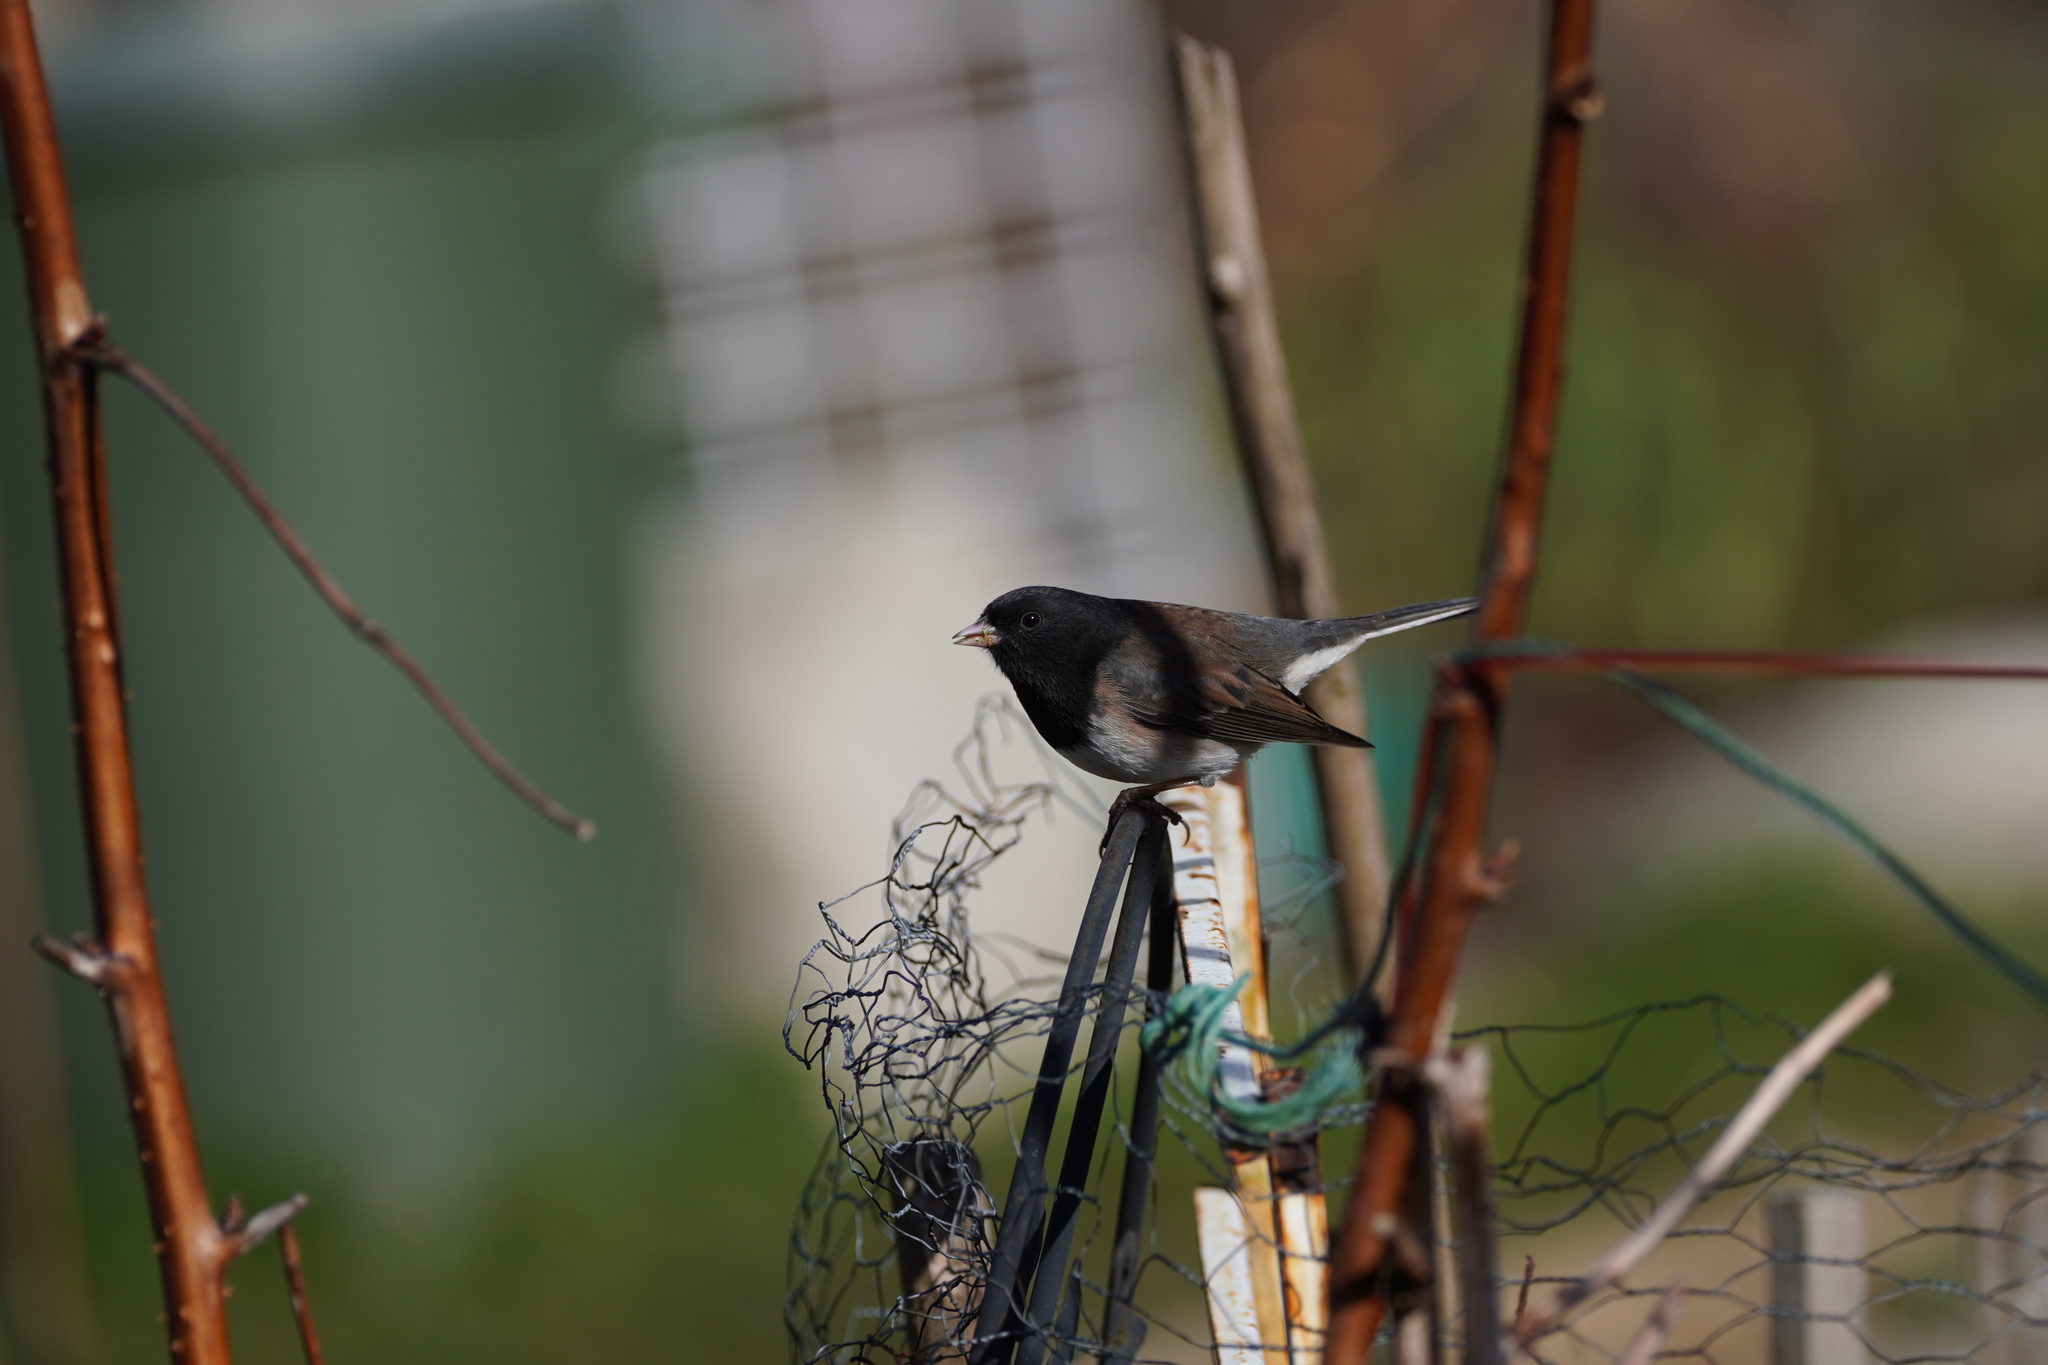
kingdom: Animalia
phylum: Chordata
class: Aves
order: Passeriformes
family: Passerellidae
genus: Junco
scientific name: Junco hyemalis
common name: Dark-eyed junco
